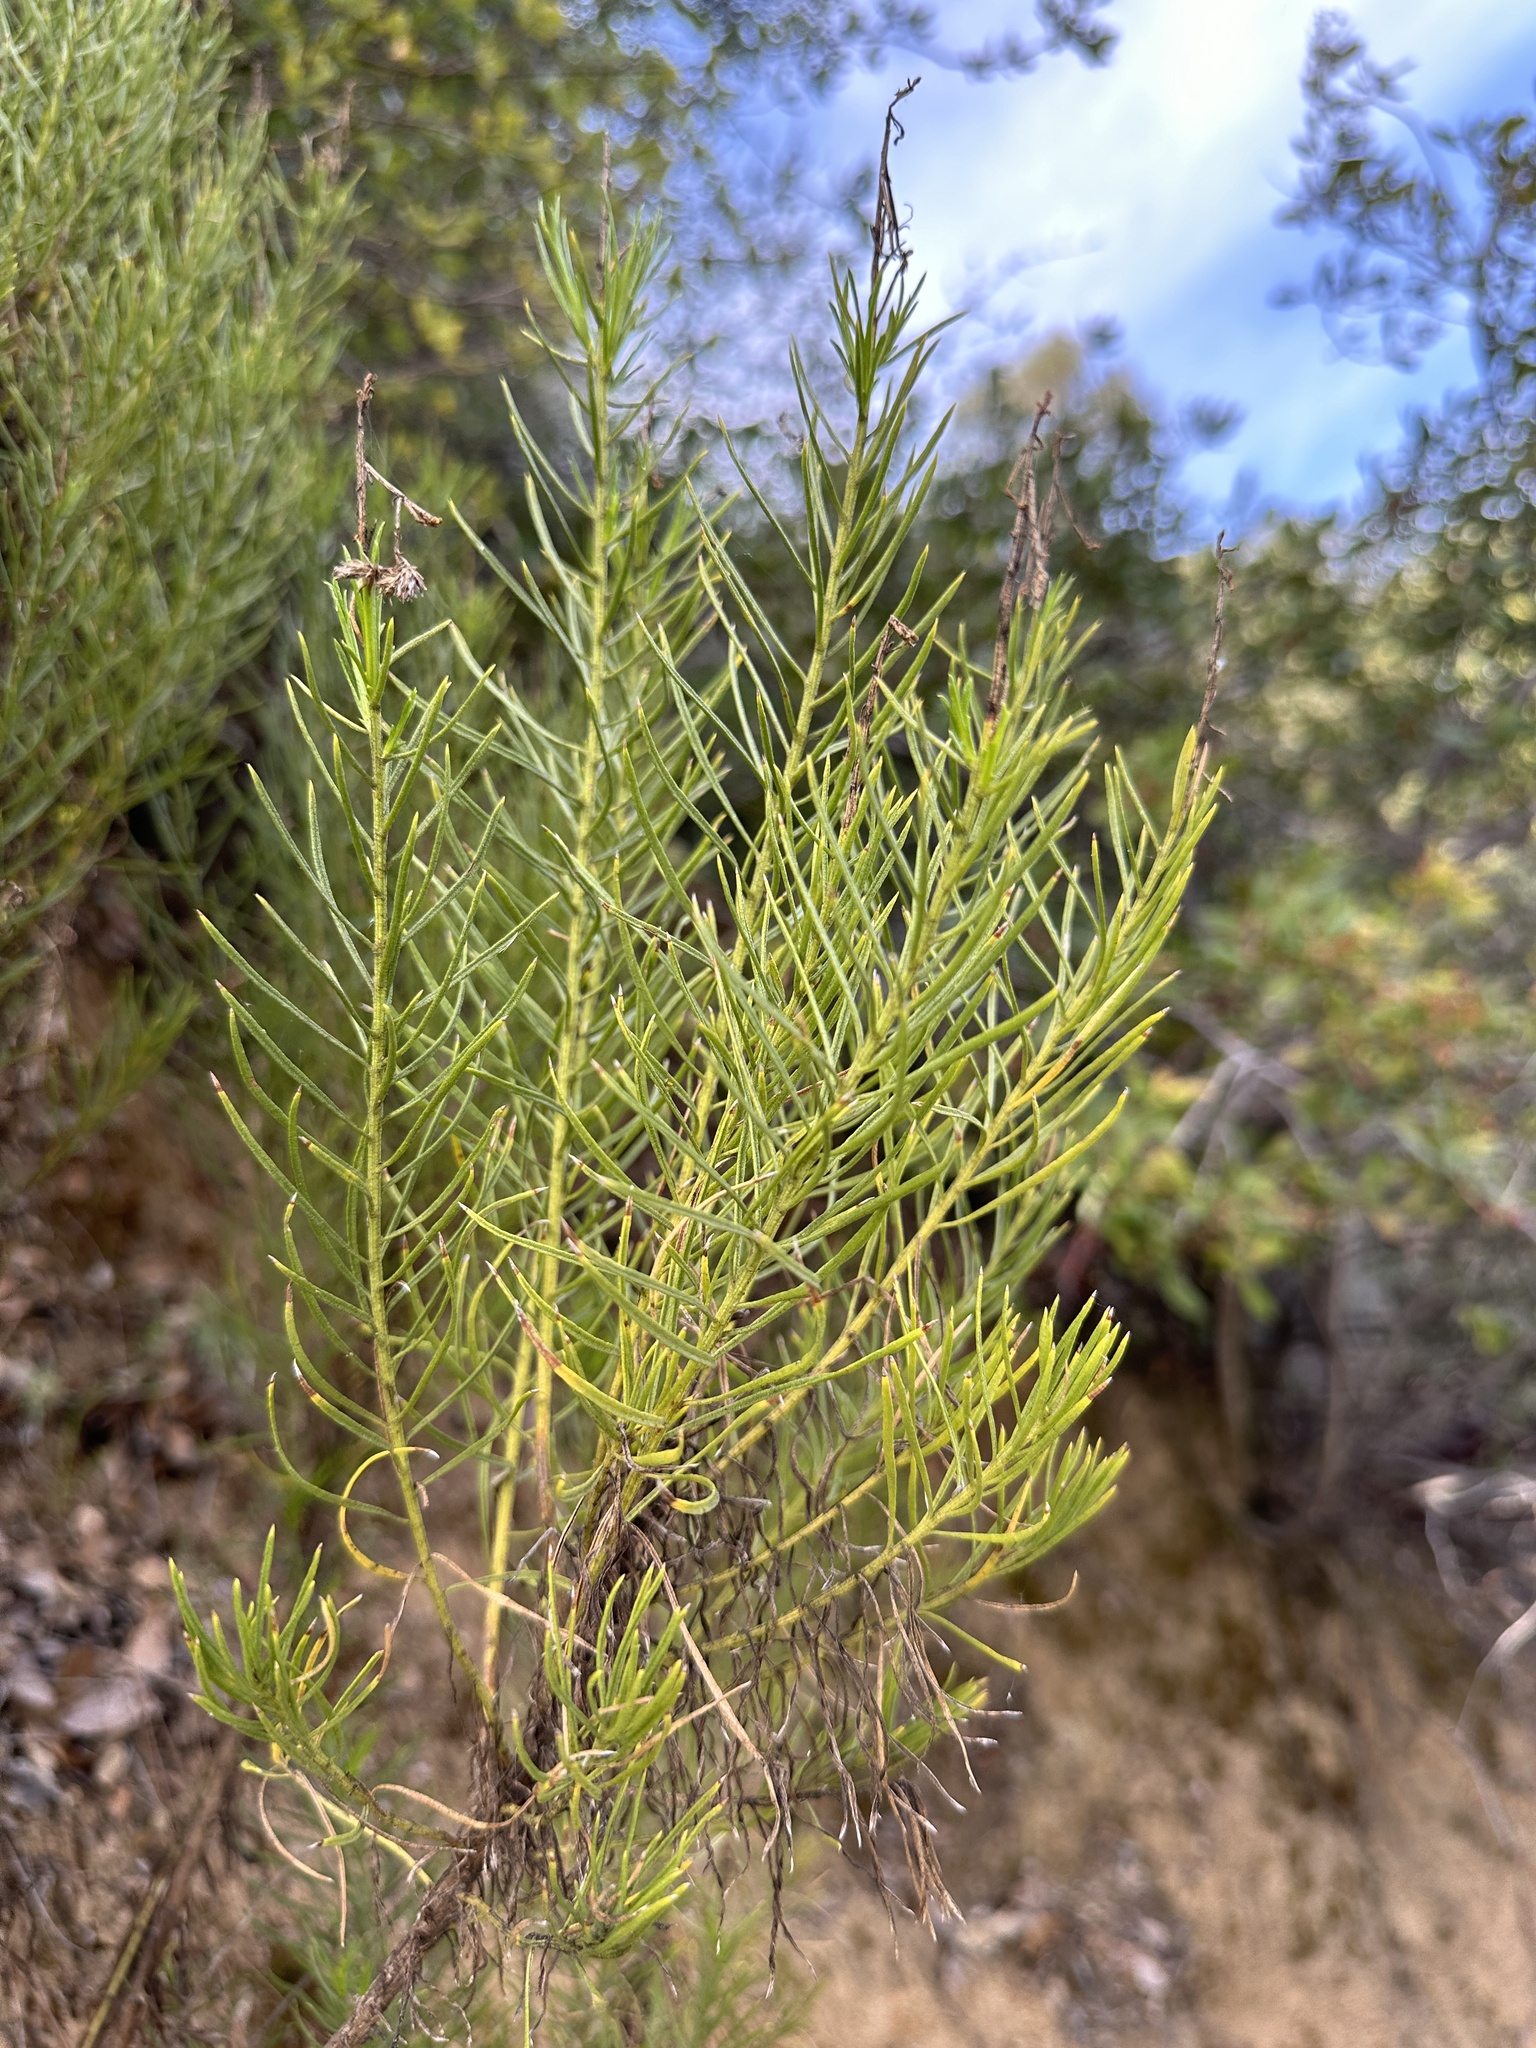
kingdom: Plantae
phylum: Tracheophyta
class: Magnoliopsida
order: Asterales
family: Asteraceae
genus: Ericameria
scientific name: Ericameria arborescens
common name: Goldenfleece
